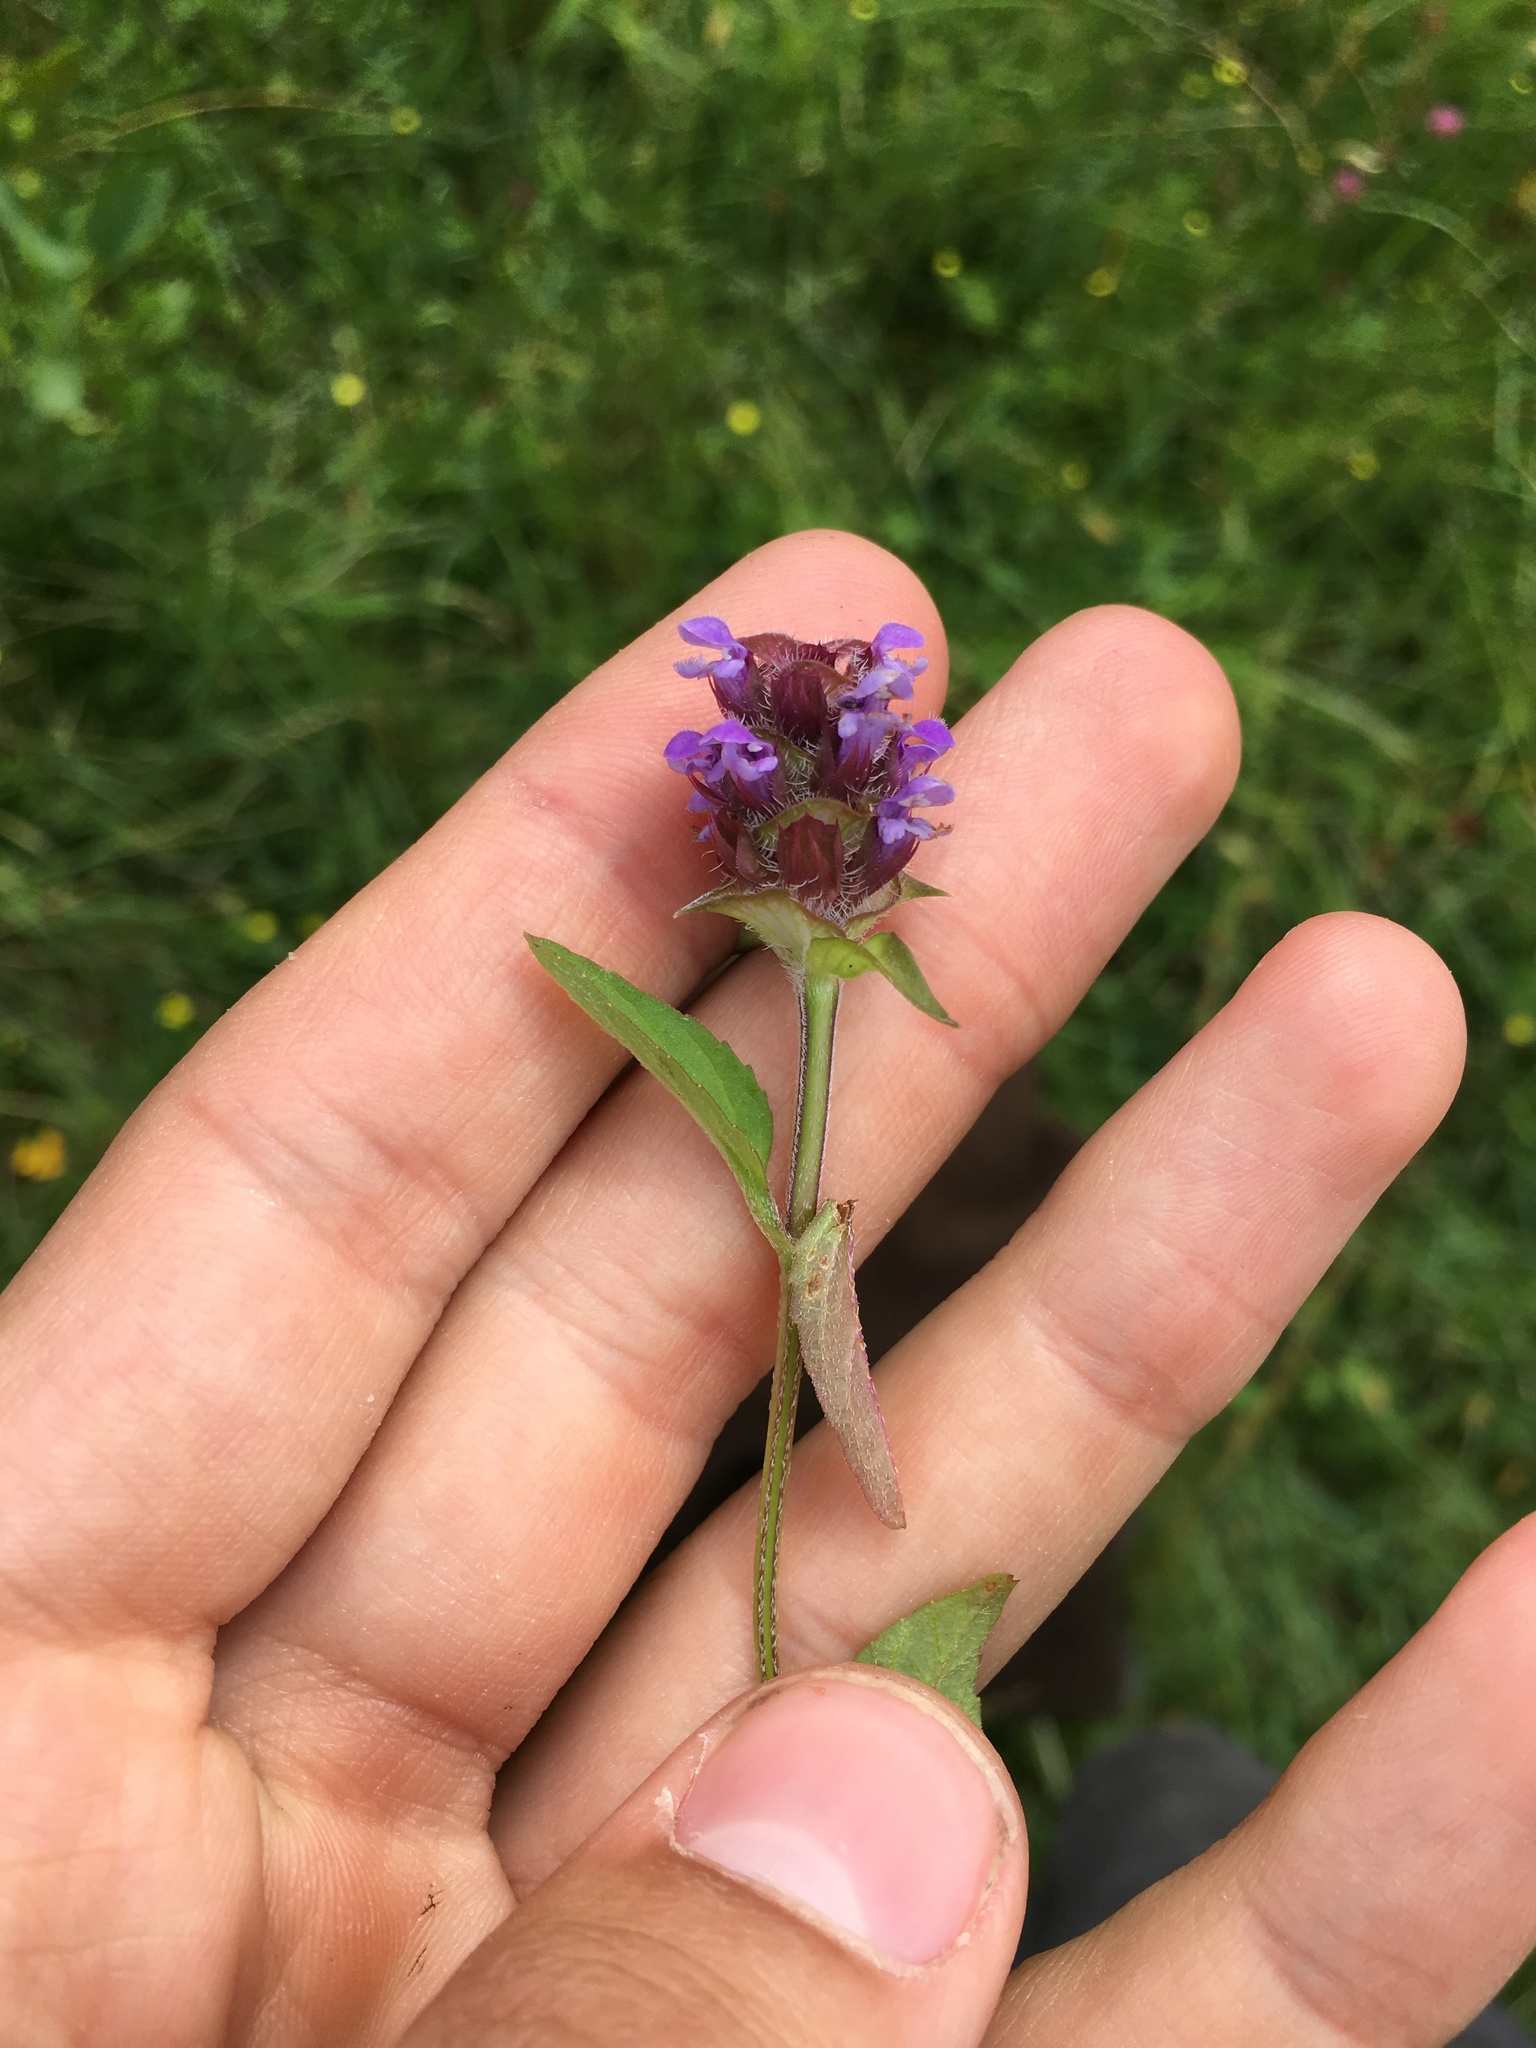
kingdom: Plantae
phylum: Tracheophyta
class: Magnoliopsida
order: Lamiales
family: Lamiaceae
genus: Prunella
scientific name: Prunella vulgaris
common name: Heal-all
